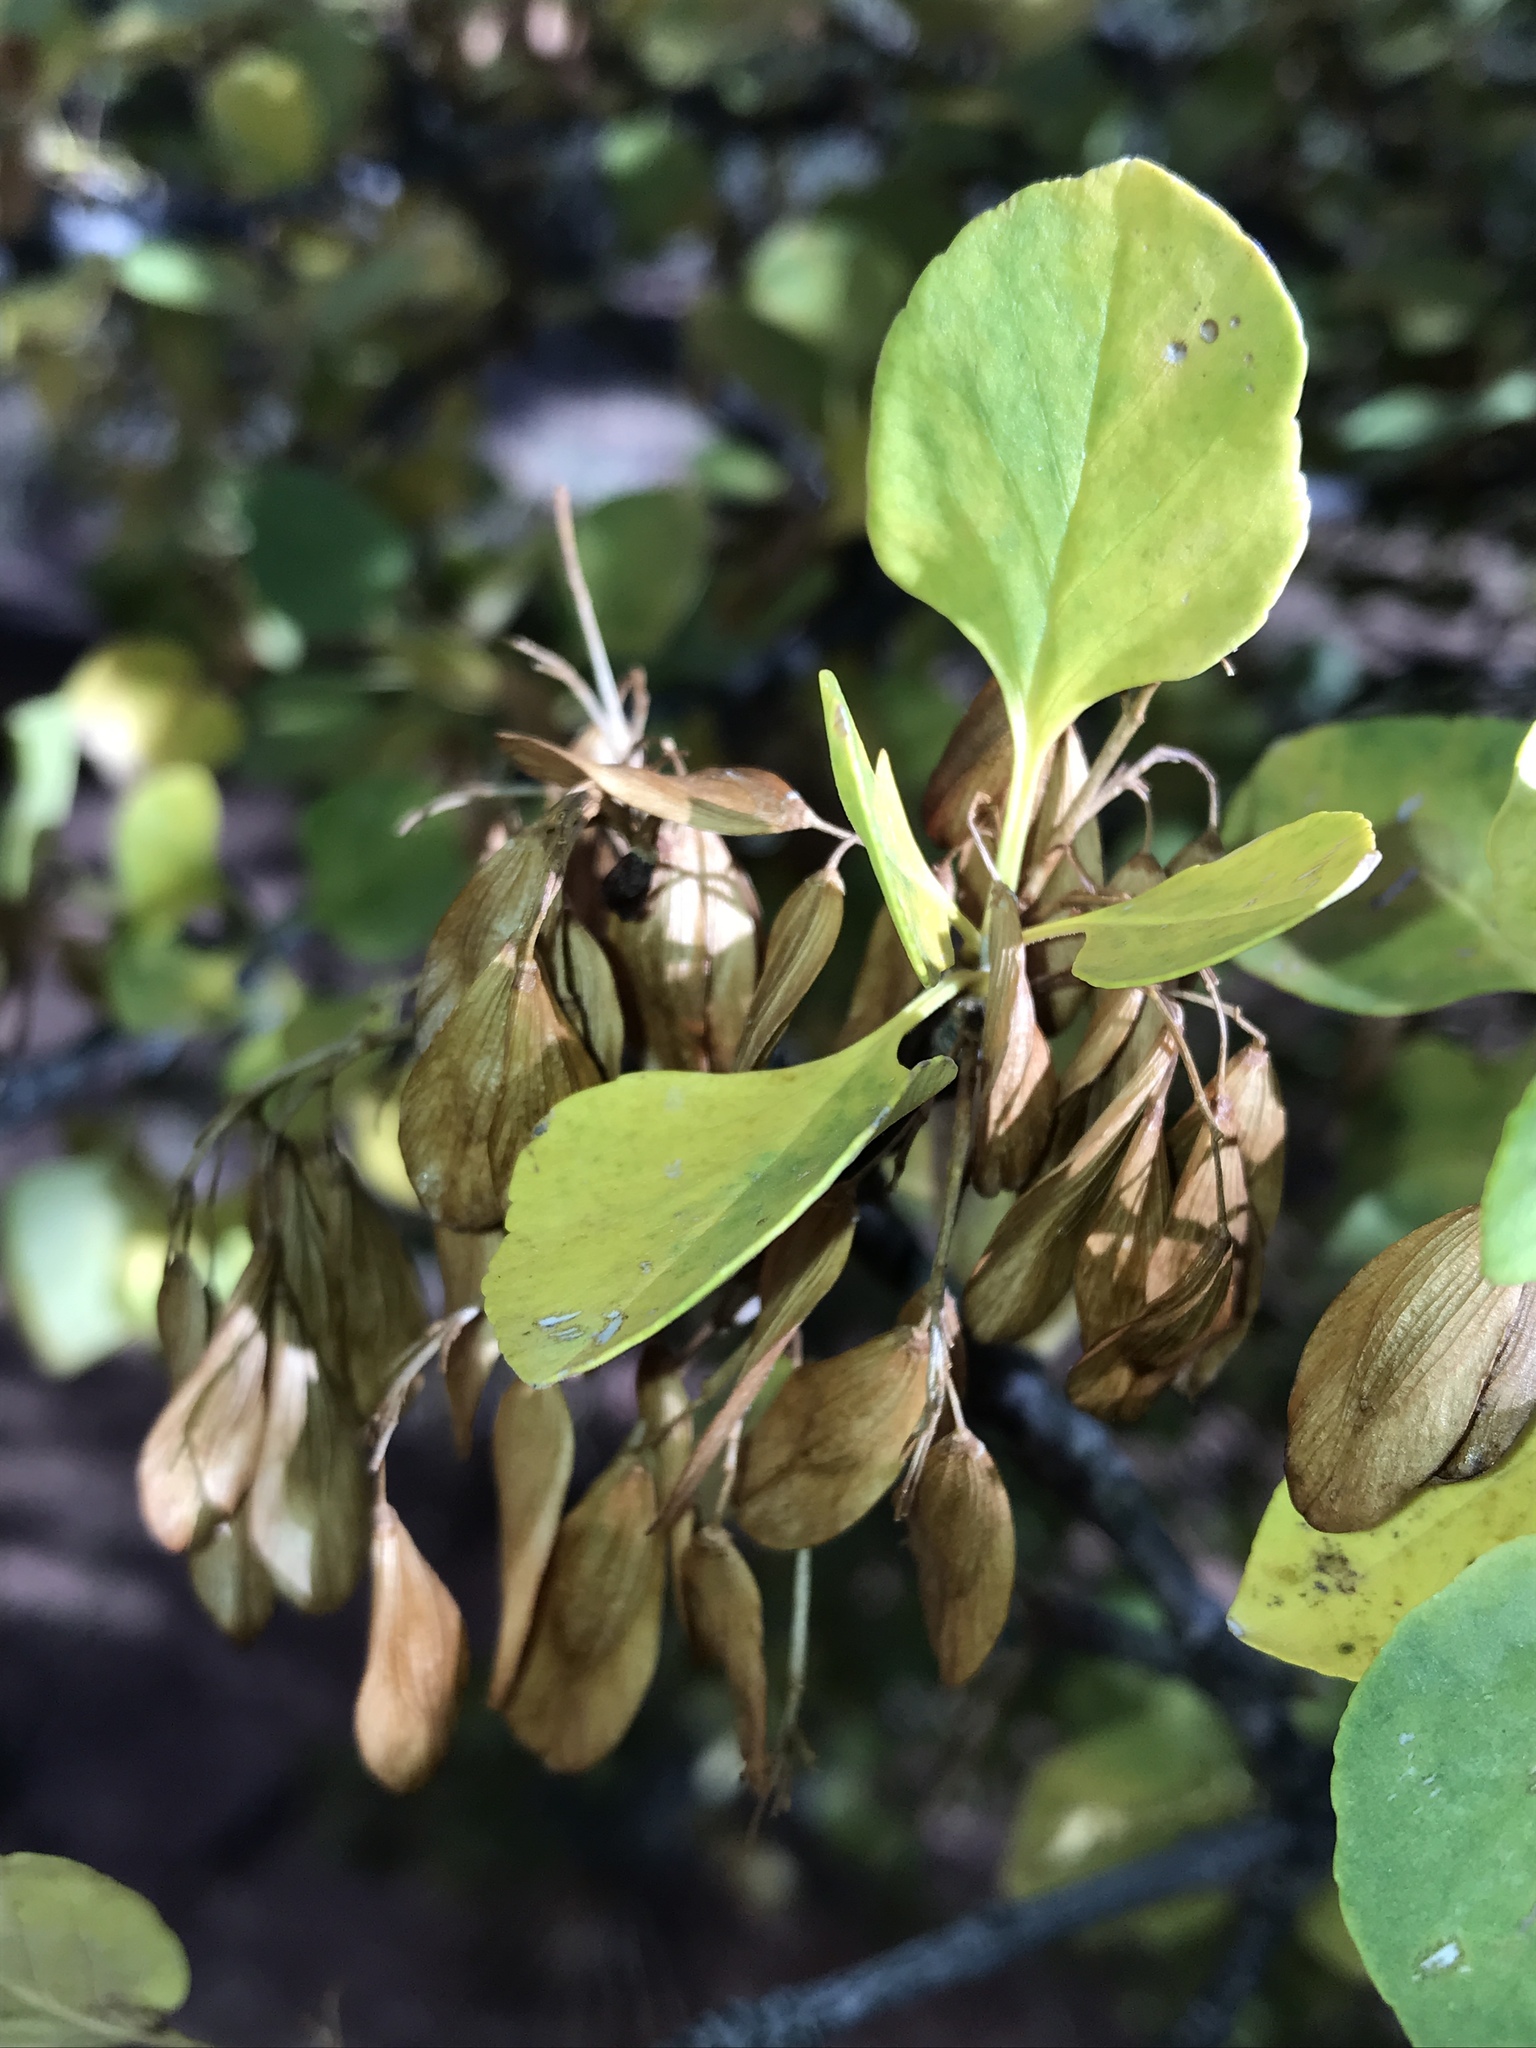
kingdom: Plantae
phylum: Tracheophyta
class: Magnoliopsida
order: Lamiales
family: Oleaceae
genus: Fraxinus
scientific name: Fraxinus anomala
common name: Utah ash
